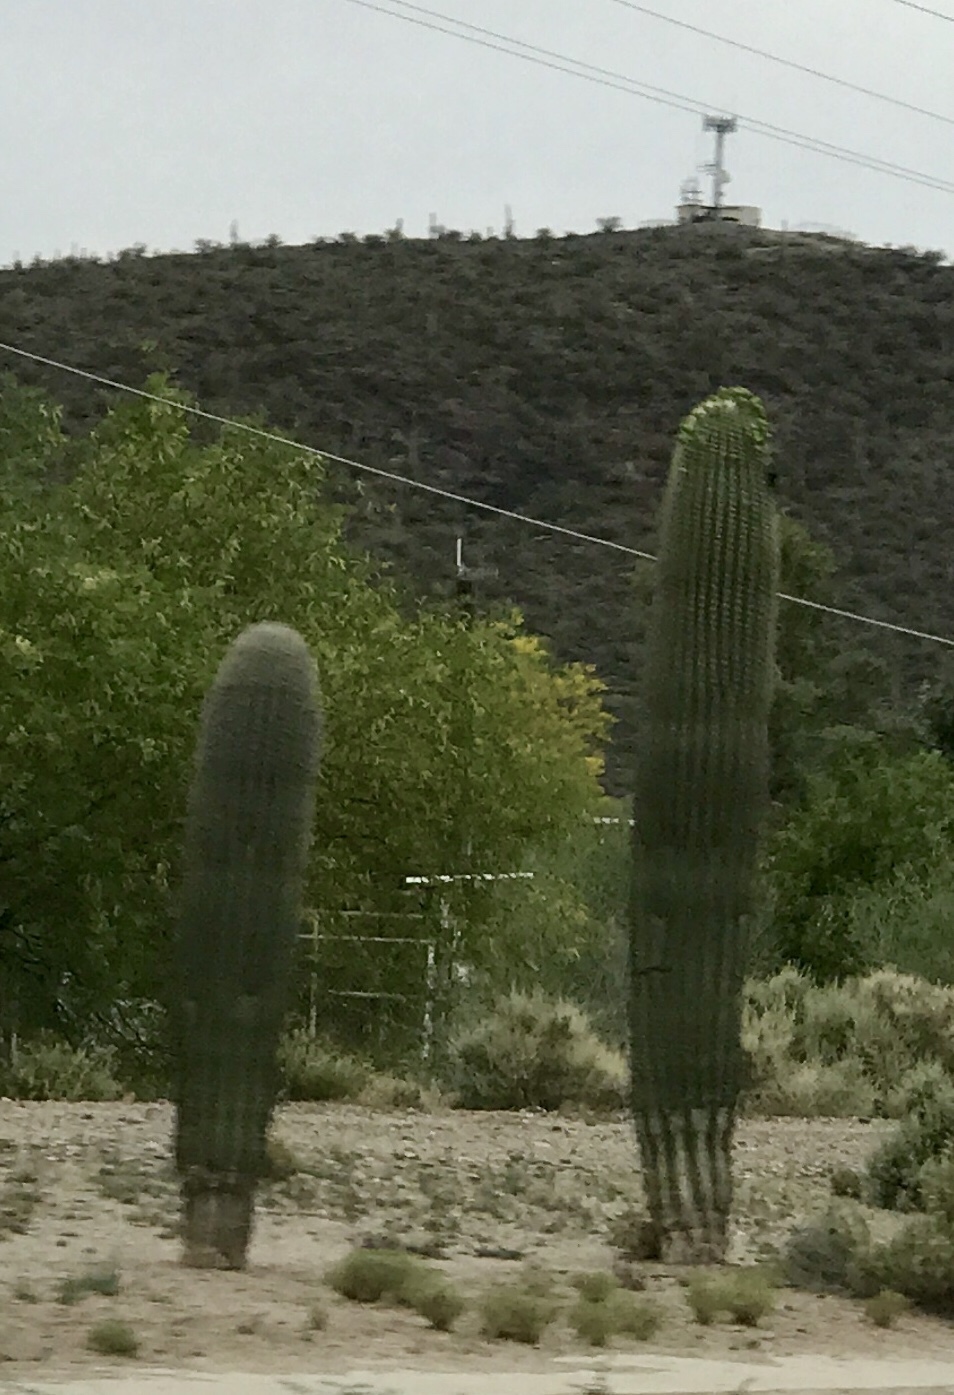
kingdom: Plantae
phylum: Tracheophyta
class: Magnoliopsida
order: Caryophyllales
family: Cactaceae
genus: Carnegiea
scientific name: Carnegiea gigantea
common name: Saguaro
